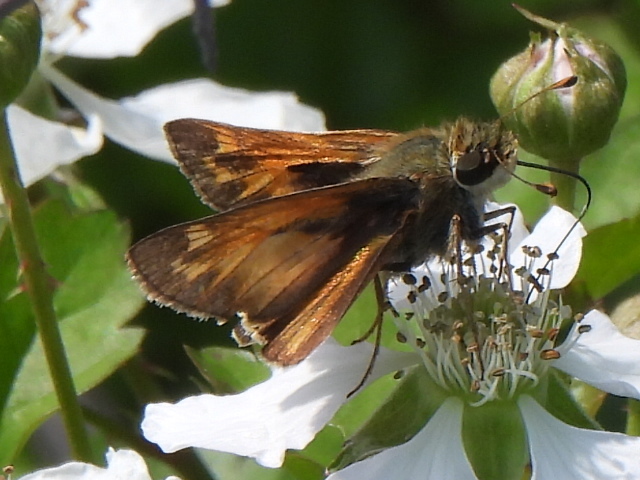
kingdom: Animalia
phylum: Arthropoda
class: Insecta
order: Lepidoptera
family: Hesperiidae
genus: Atalopedes
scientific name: Atalopedes
